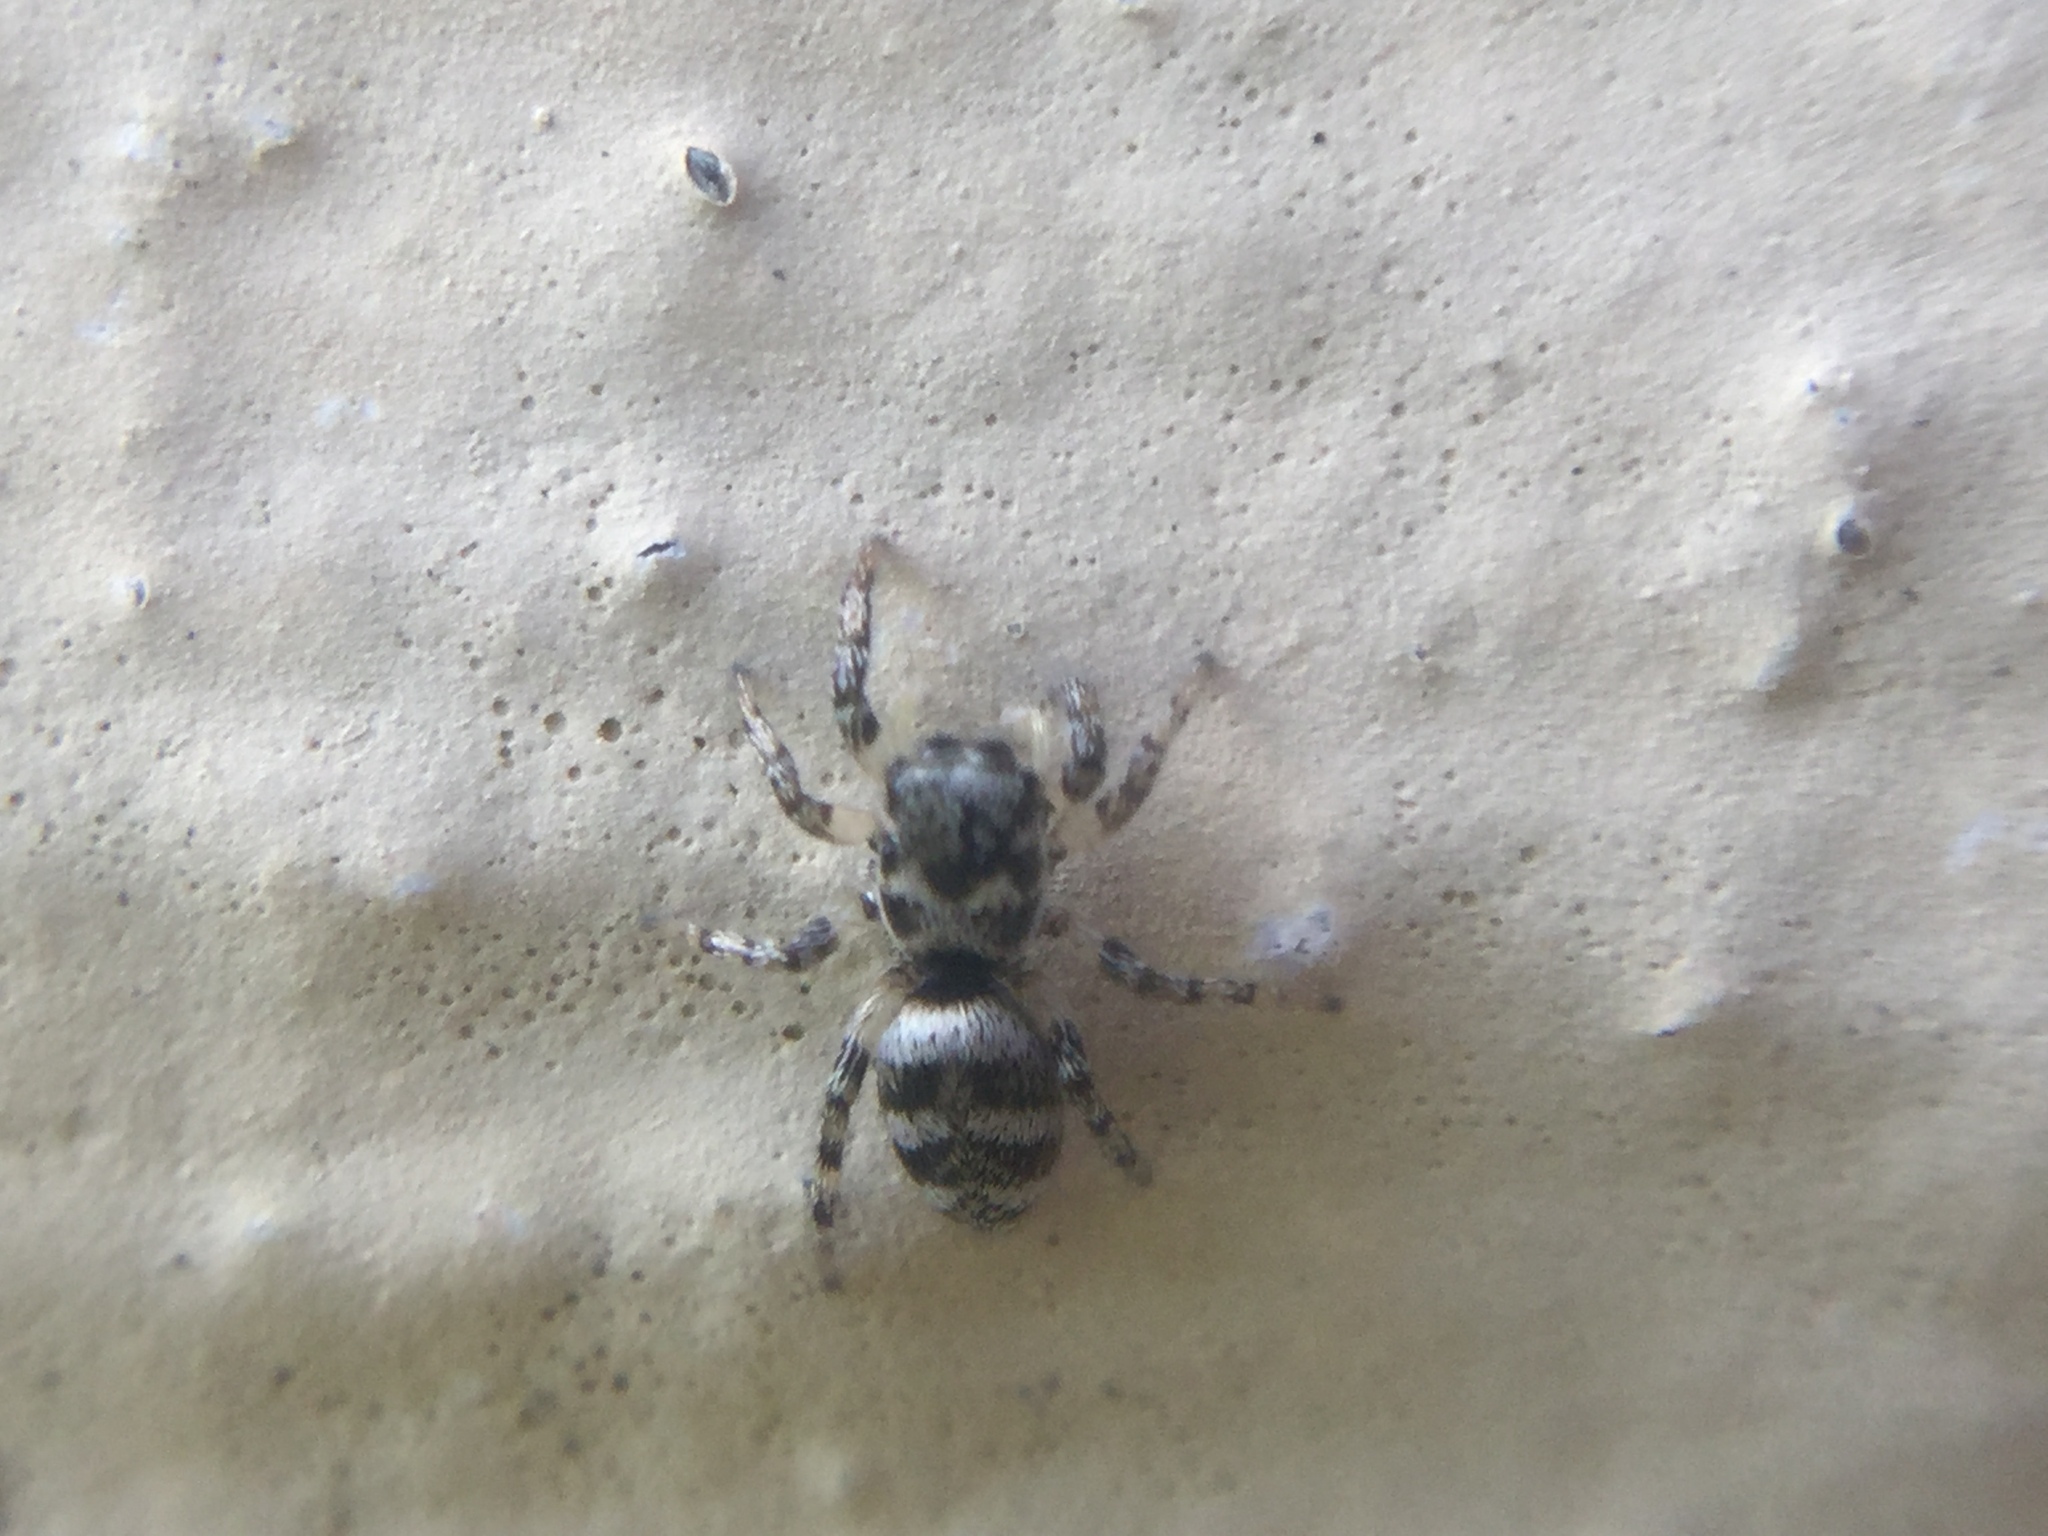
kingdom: Animalia
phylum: Arthropoda
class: Arachnida
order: Araneae
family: Salticidae
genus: Salticus
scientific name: Salticus scenicus
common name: Zebra jumper
